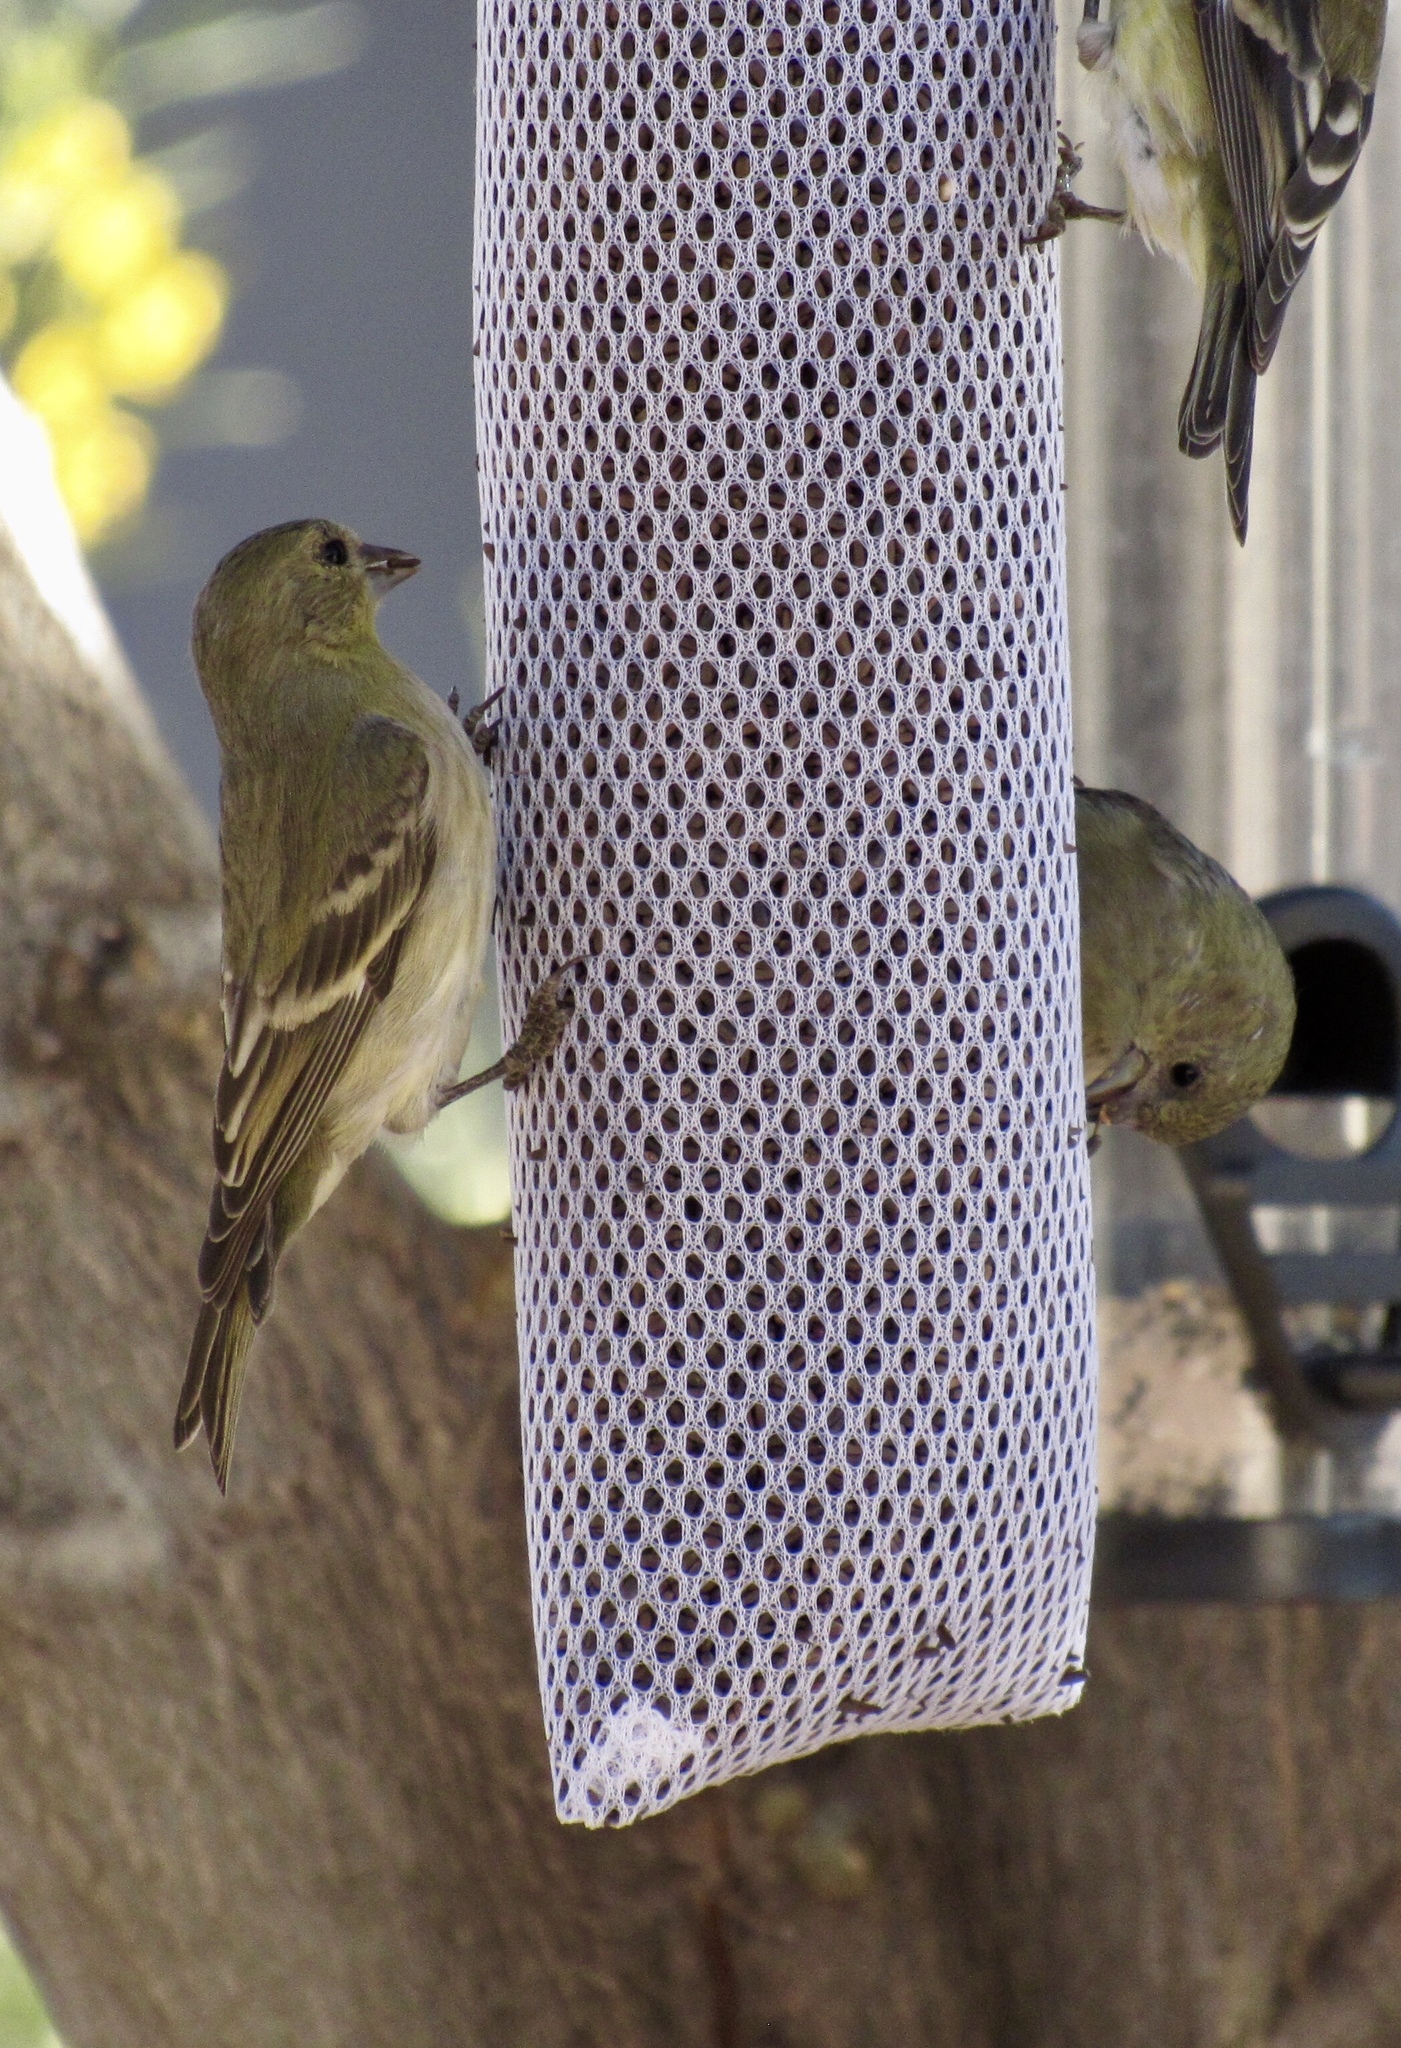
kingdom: Animalia
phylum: Chordata
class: Aves
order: Passeriformes
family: Fringillidae
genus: Spinus
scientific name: Spinus psaltria
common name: Lesser goldfinch
